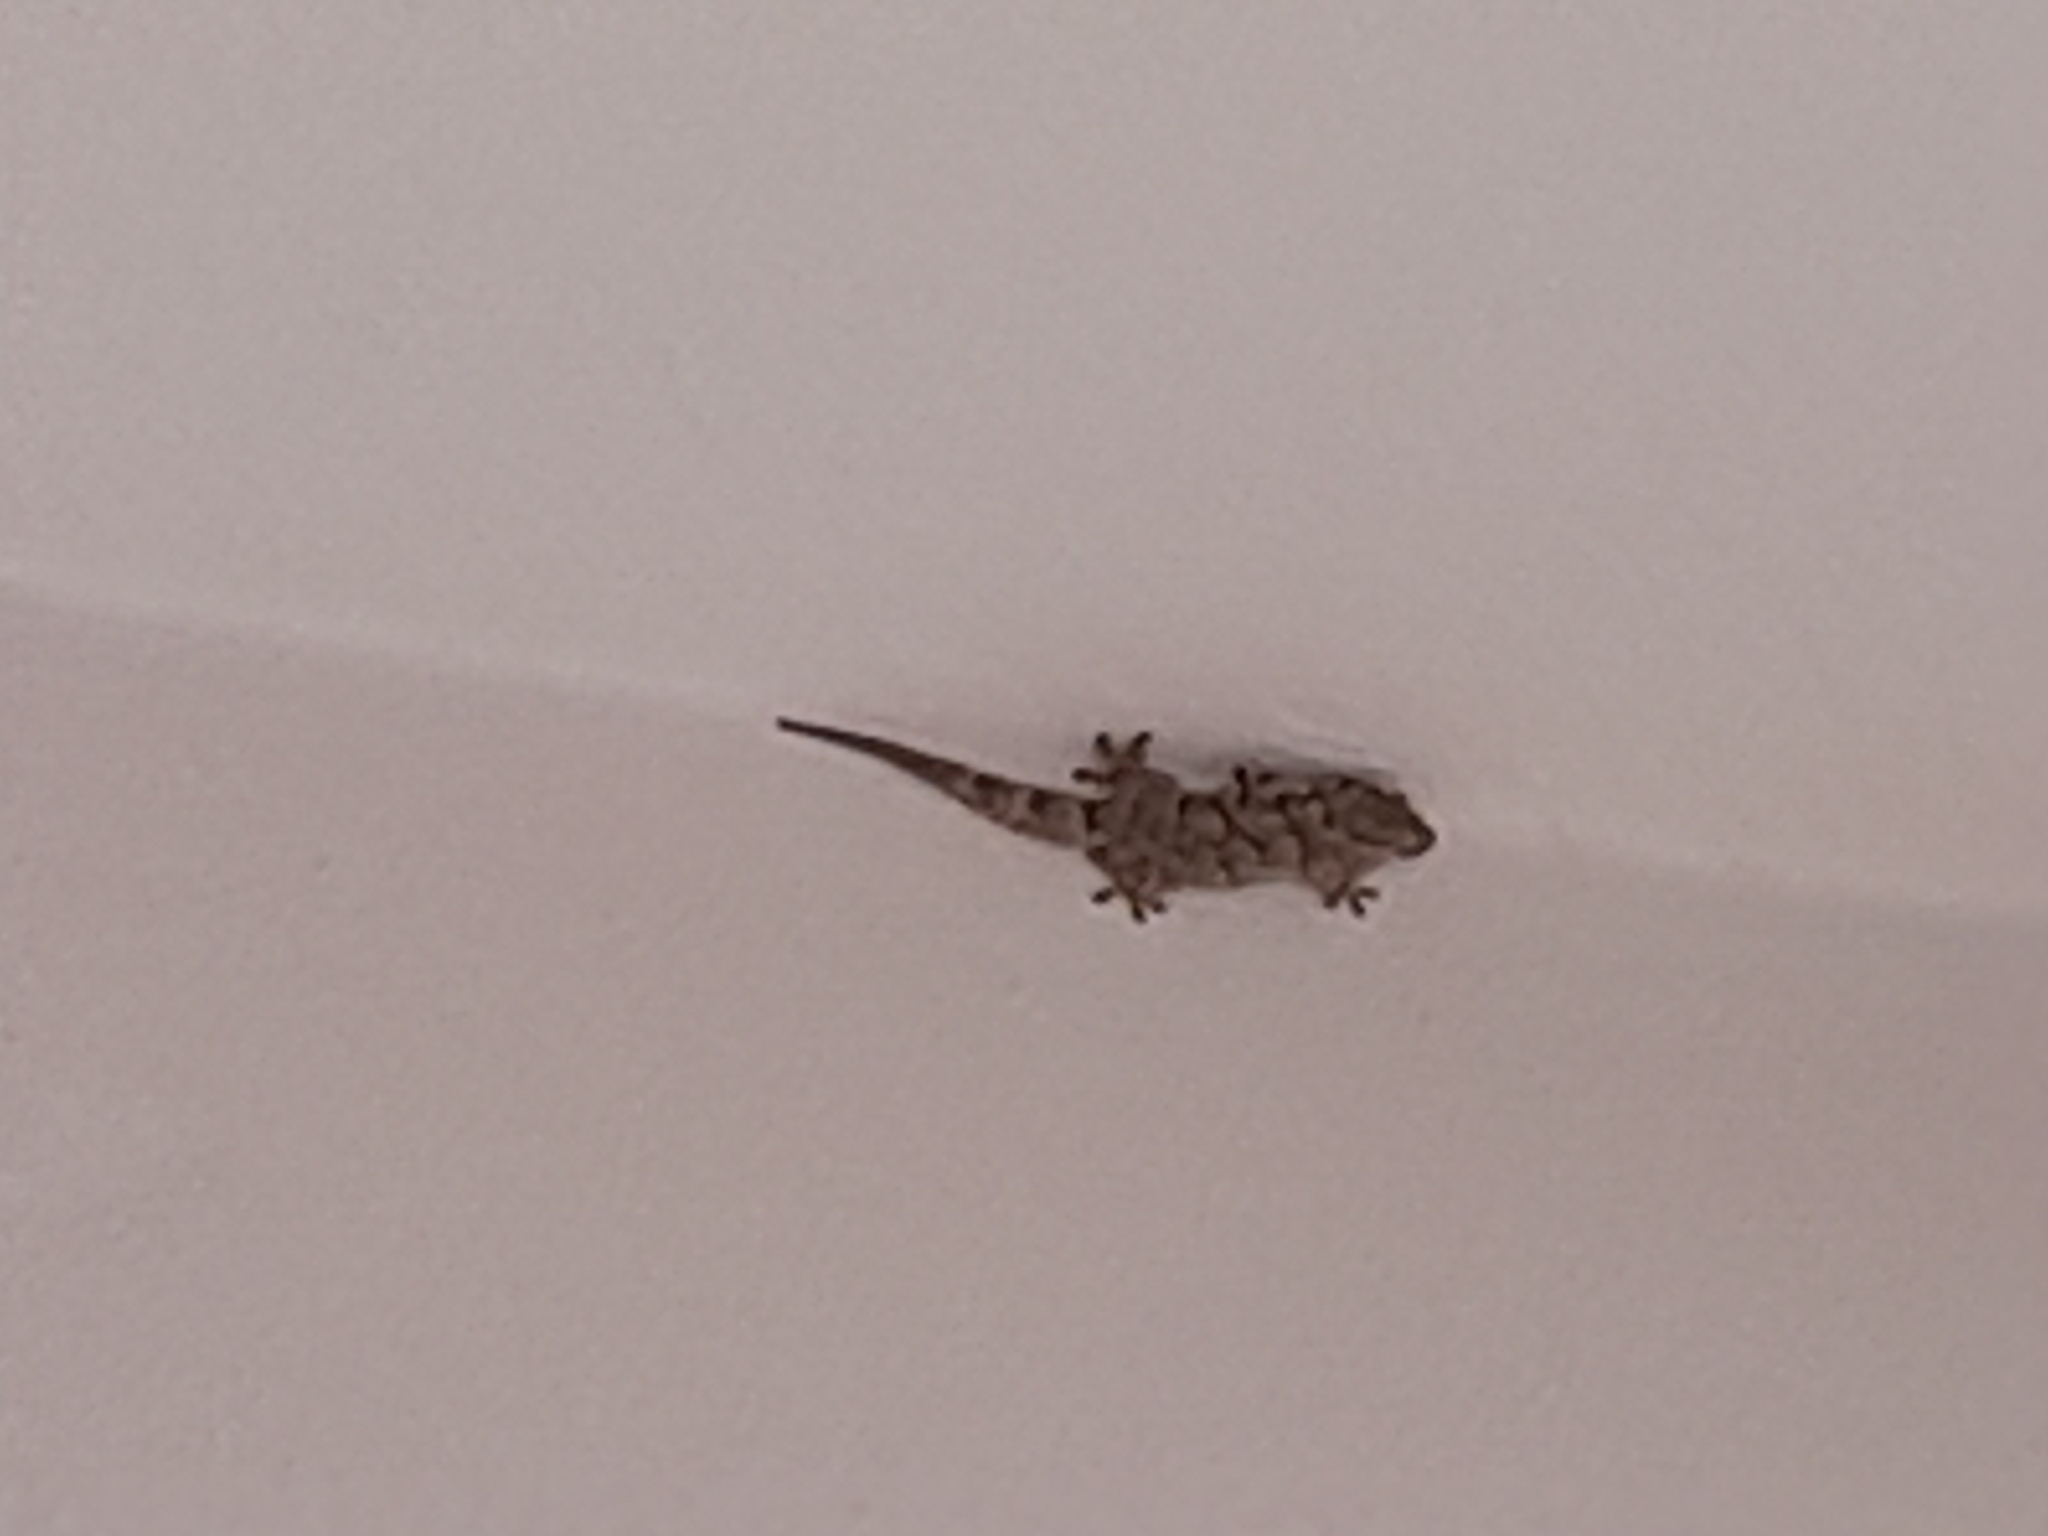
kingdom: Animalia
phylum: Chordata
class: Squamata
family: Phyllodactylidae
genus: Tarentola
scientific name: Tarentola mauritanica
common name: Moorish gecko
